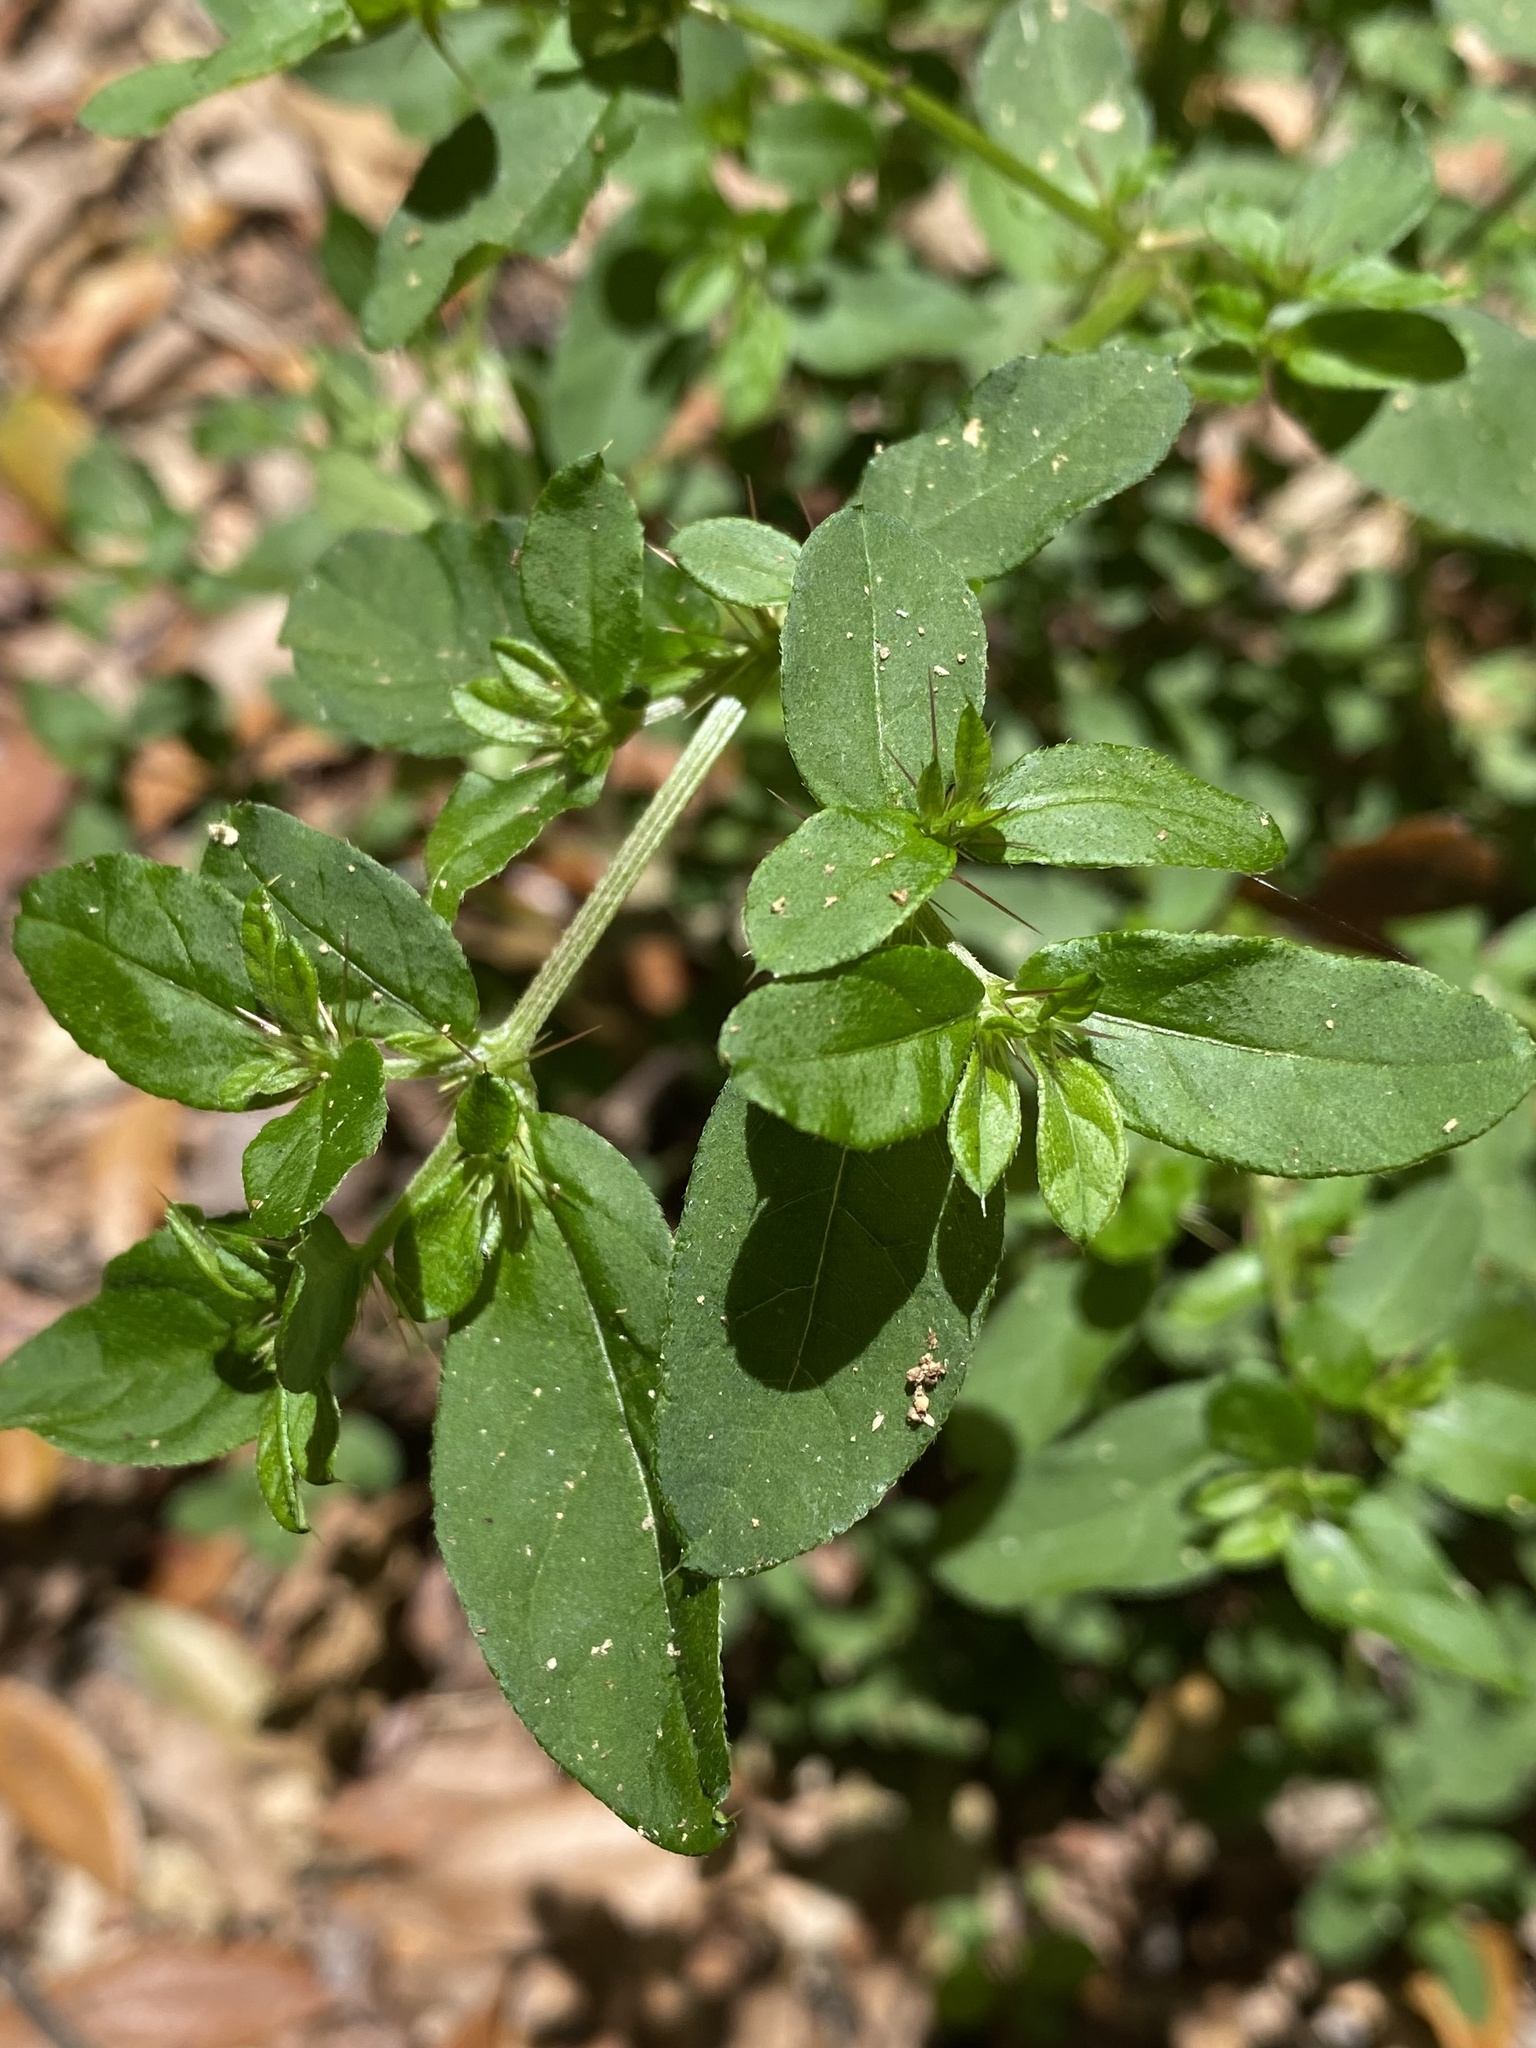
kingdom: Plantae
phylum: Tracheophyta
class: Magnoliopsida
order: Caryophyllales
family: Amaranthaceae
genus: Nyssanthes
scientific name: Nyssanthes diffusa
